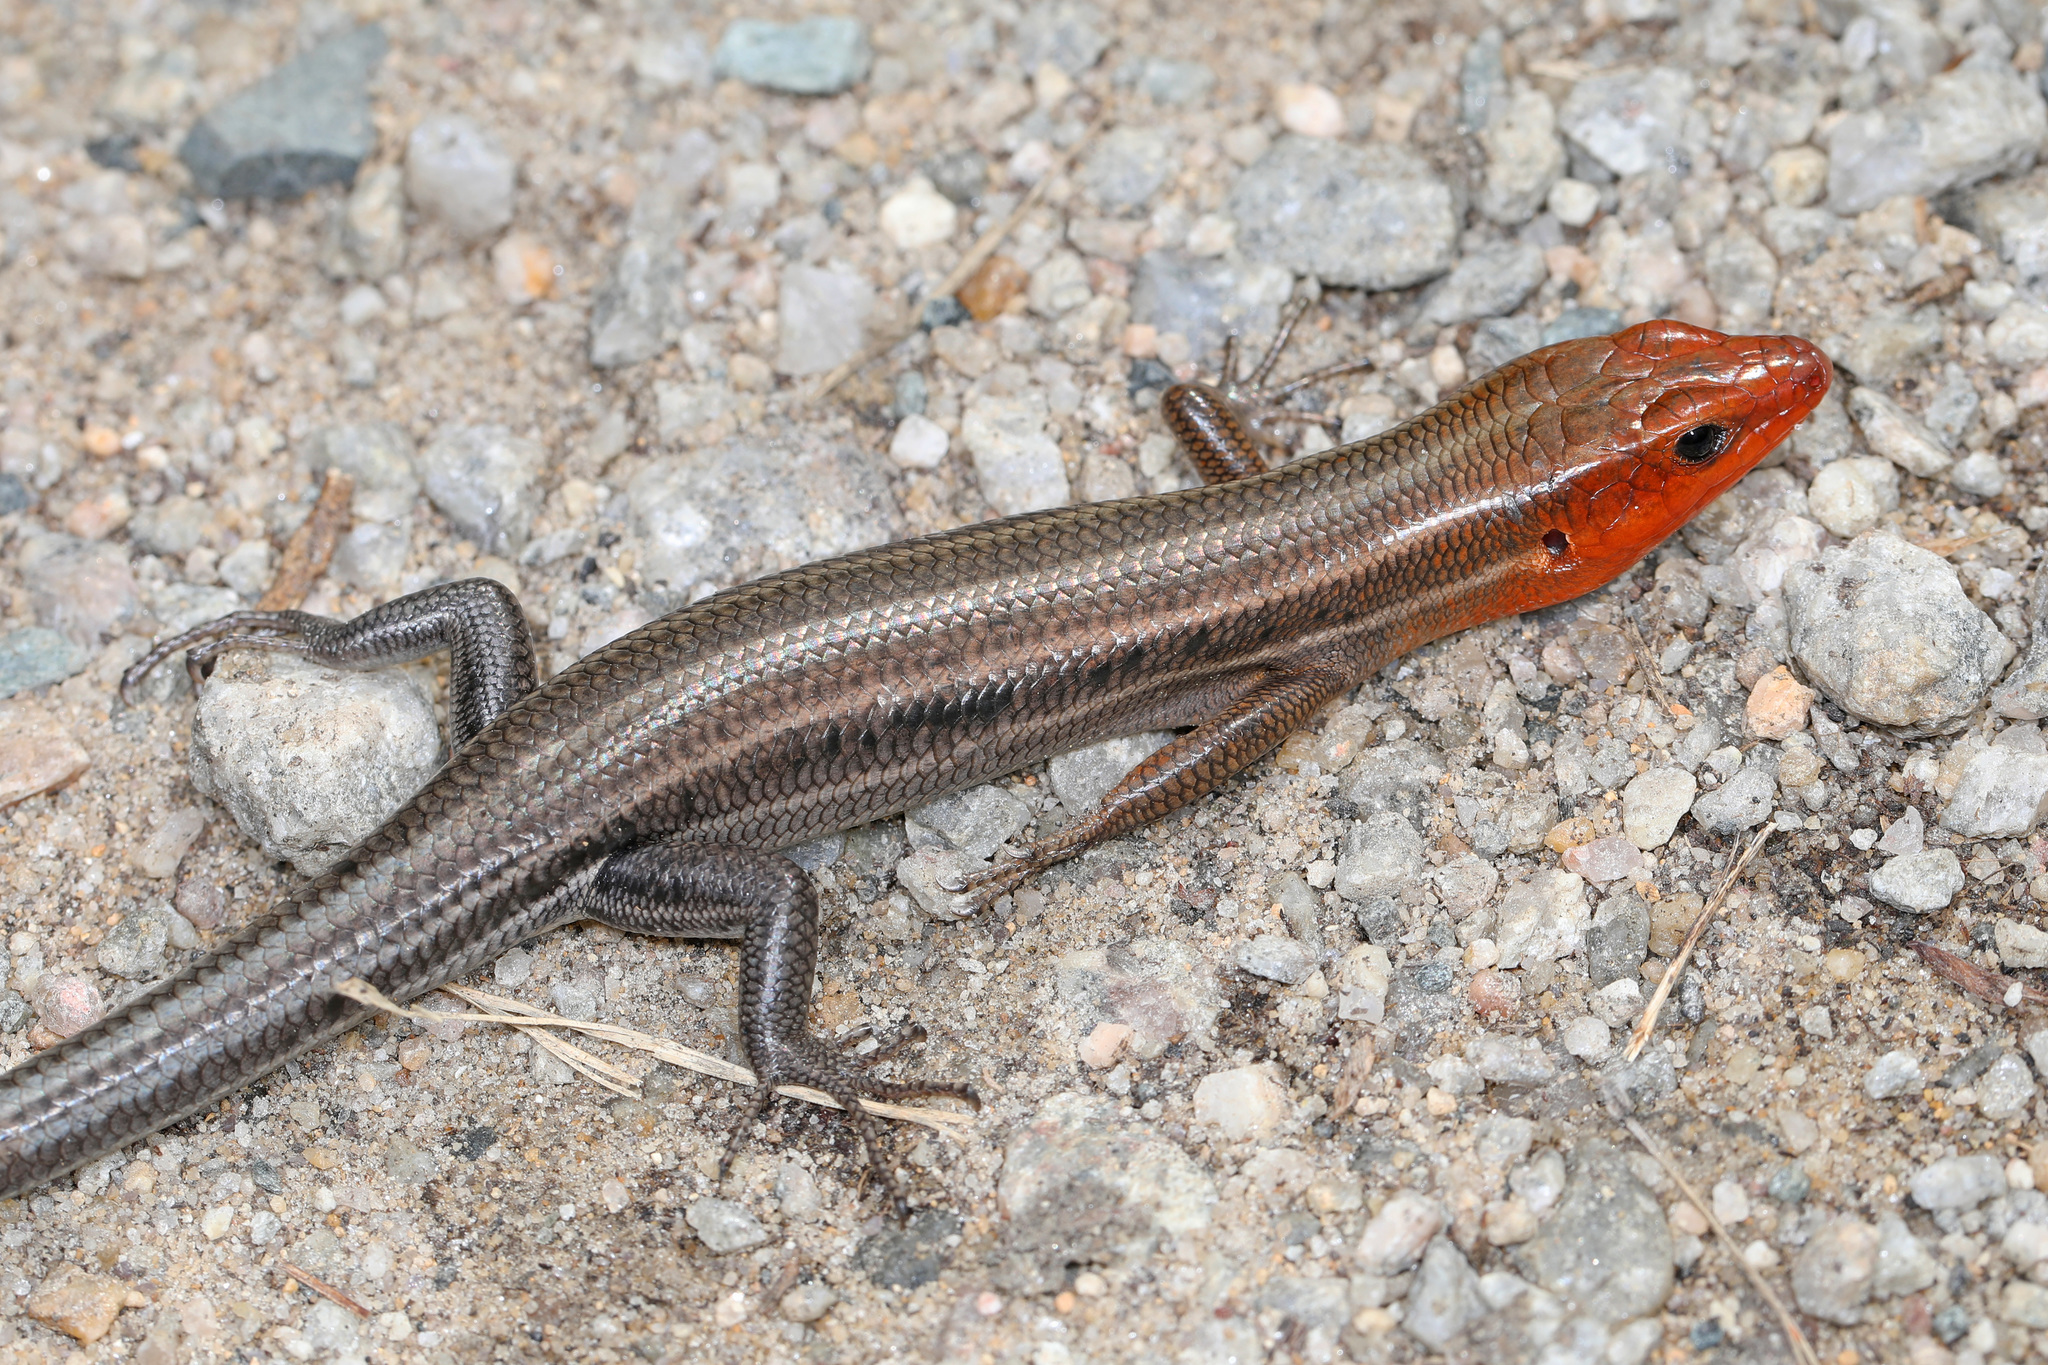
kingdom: Animalia
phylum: Chordata
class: Squamata
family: Scincidae
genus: Plestiodon
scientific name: Plestiodon fasciatus
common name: Five-lined skink
